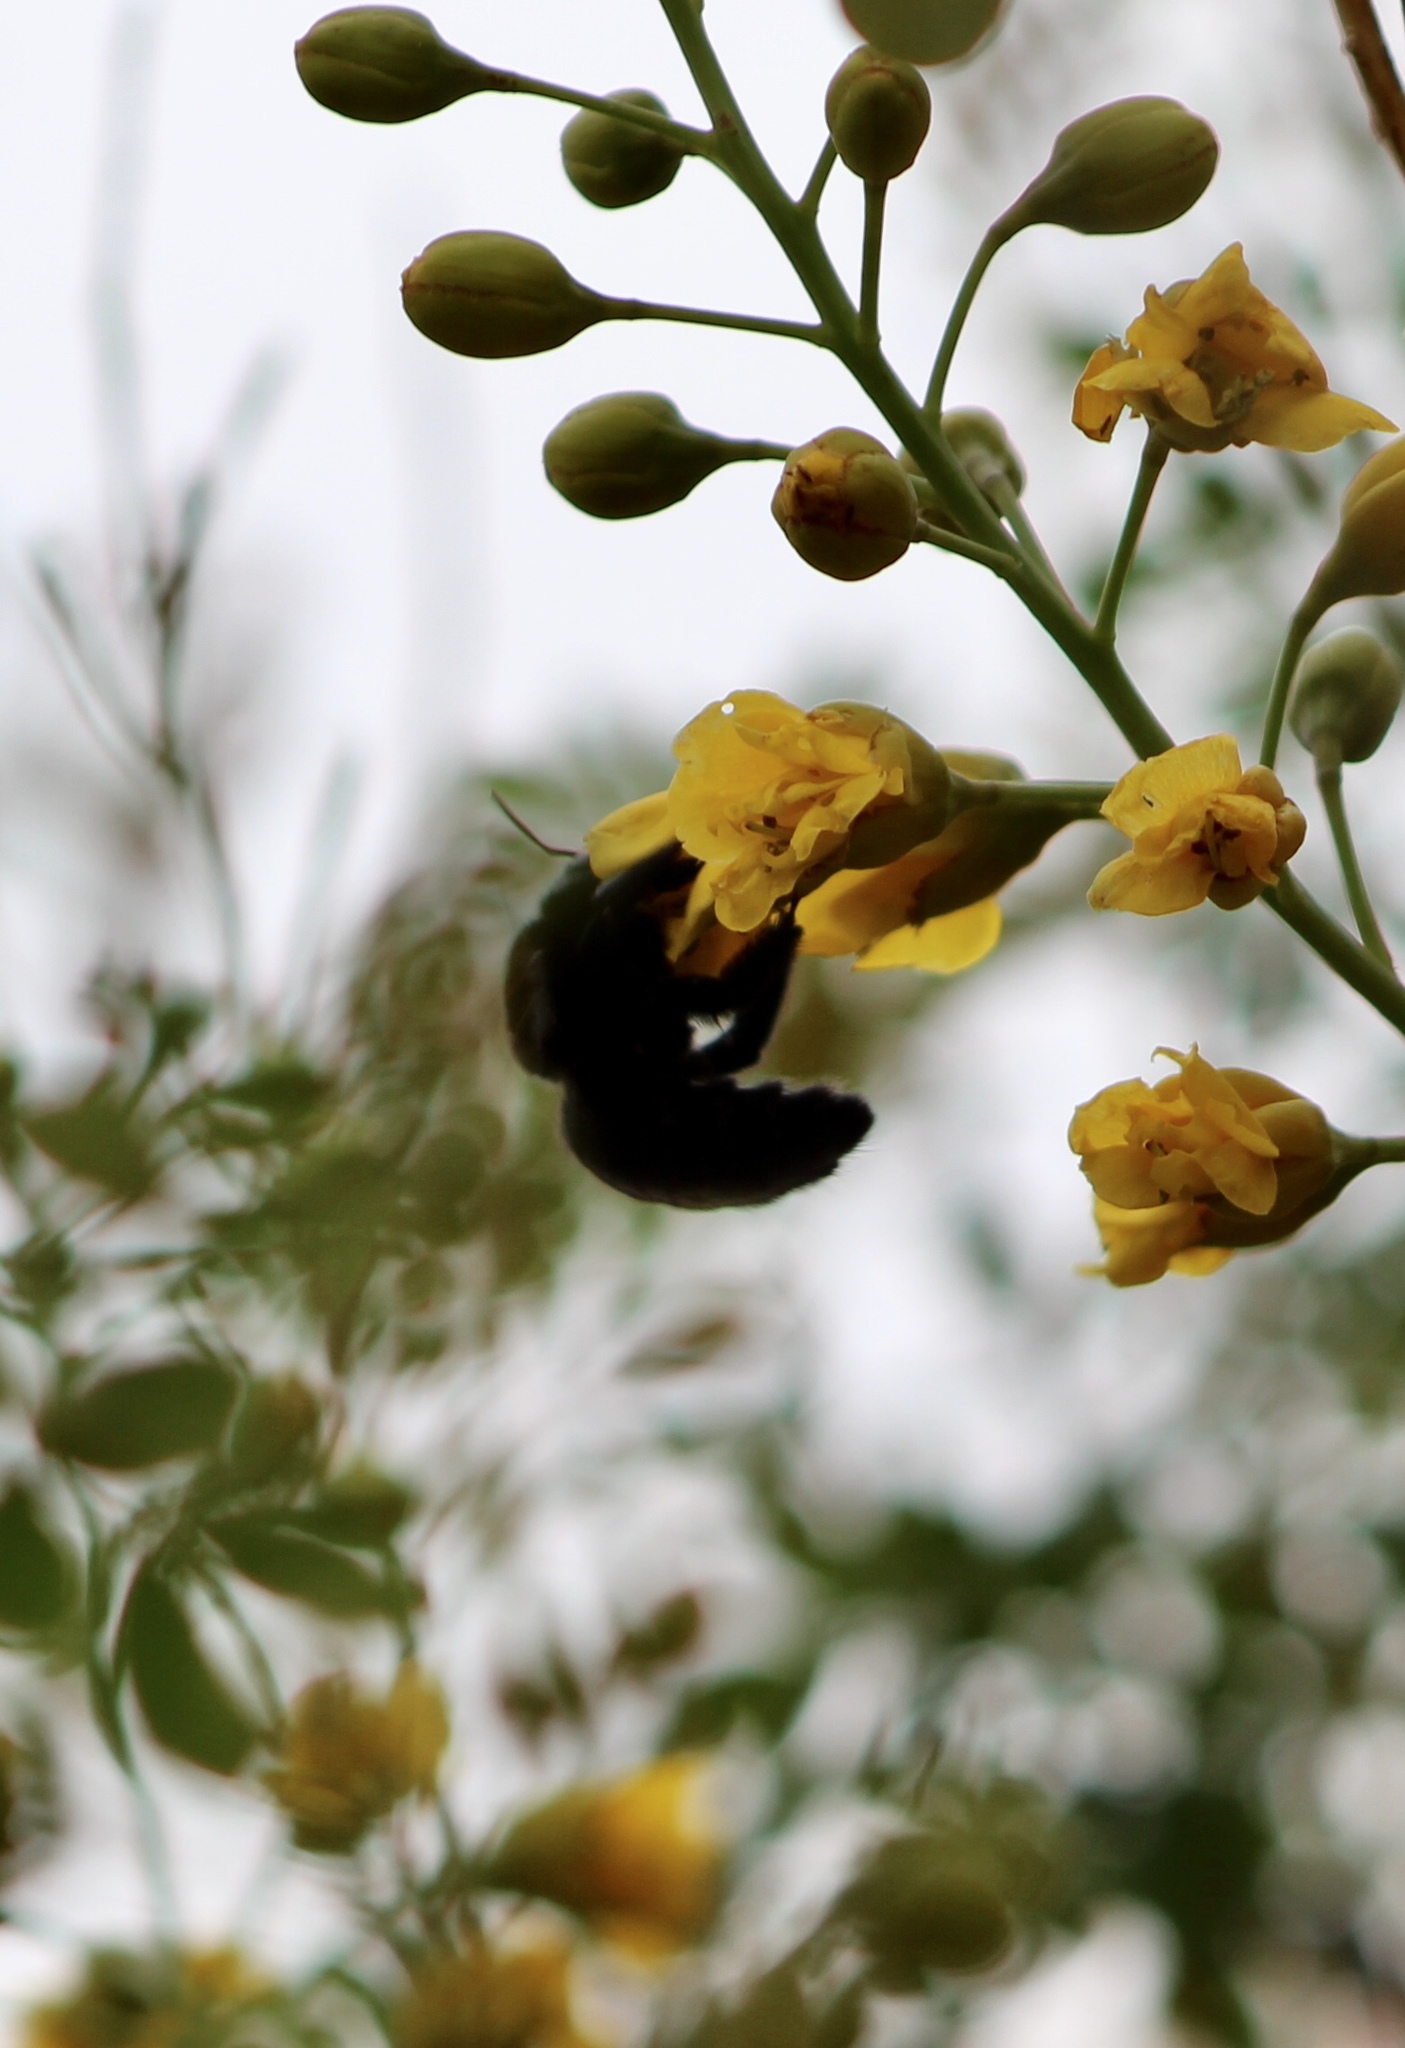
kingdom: Animalia
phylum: Arthropoda
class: Insecta
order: Hymenoptera
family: Apidae
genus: Xylocopa
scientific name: Xylocopa sonorina
